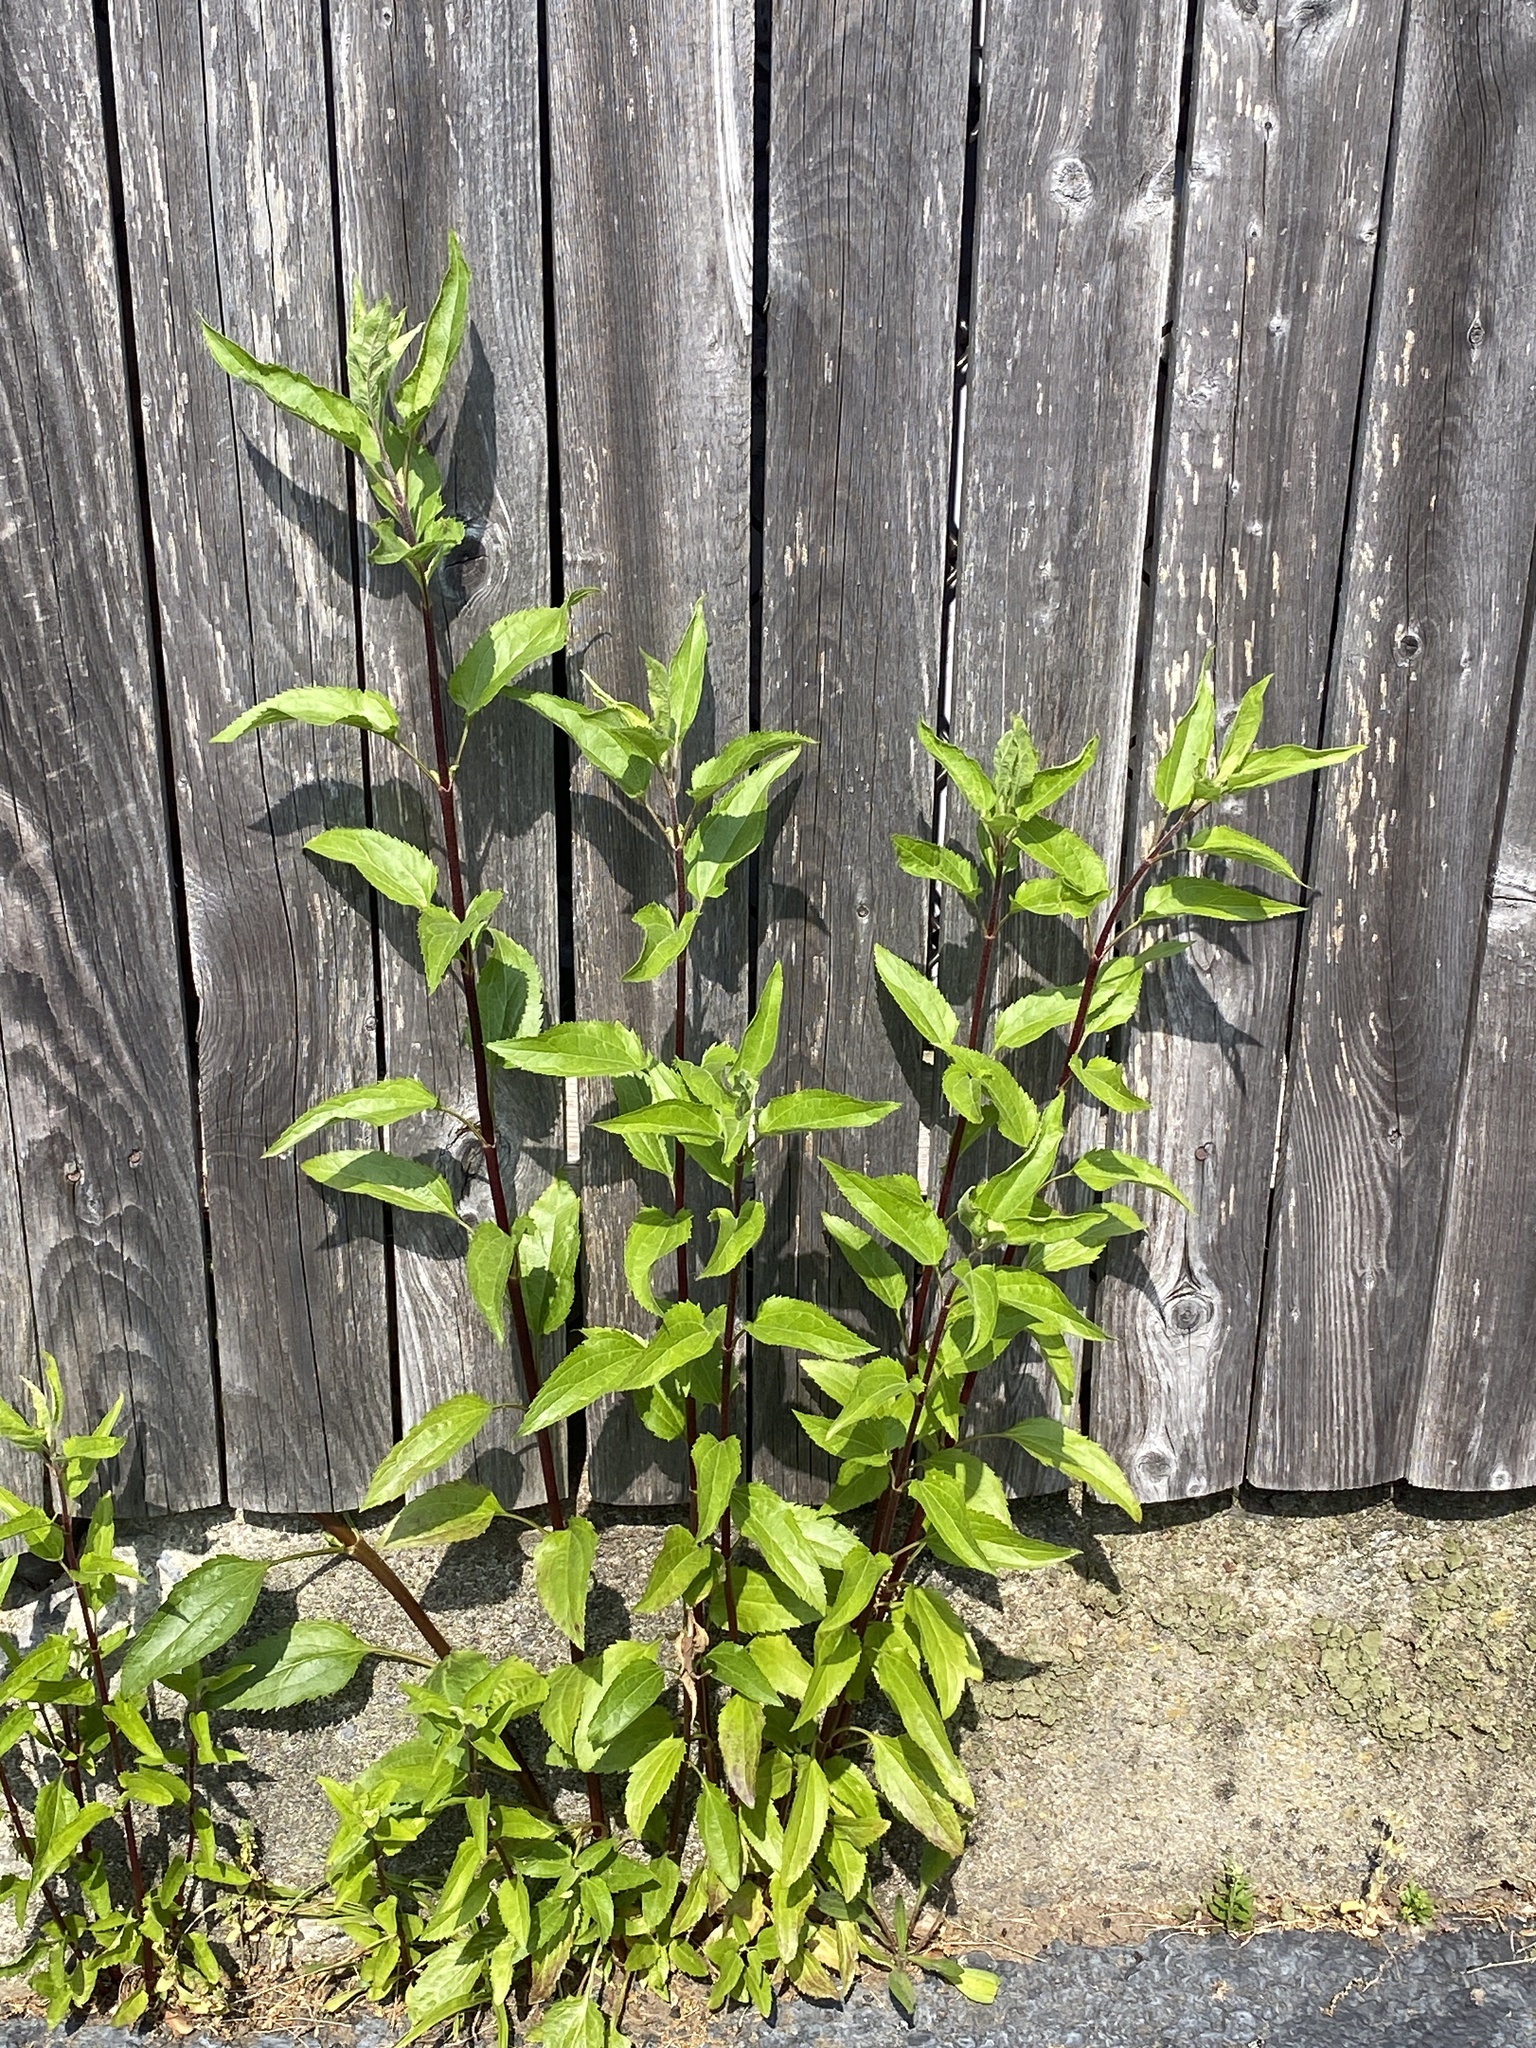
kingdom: Plantae
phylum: Tracheophyta
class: Magnoliopsida
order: Asterales
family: Asteraceae
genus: Eupatorium
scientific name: Eupatorium serotinum
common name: Late boneset
